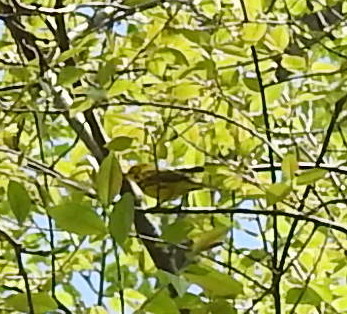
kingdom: Animalia
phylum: Chordata
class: Aves
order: Passeriformes
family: Parulidae
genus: Setophaga
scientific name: Setophaga discolor
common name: Prairie warbler
